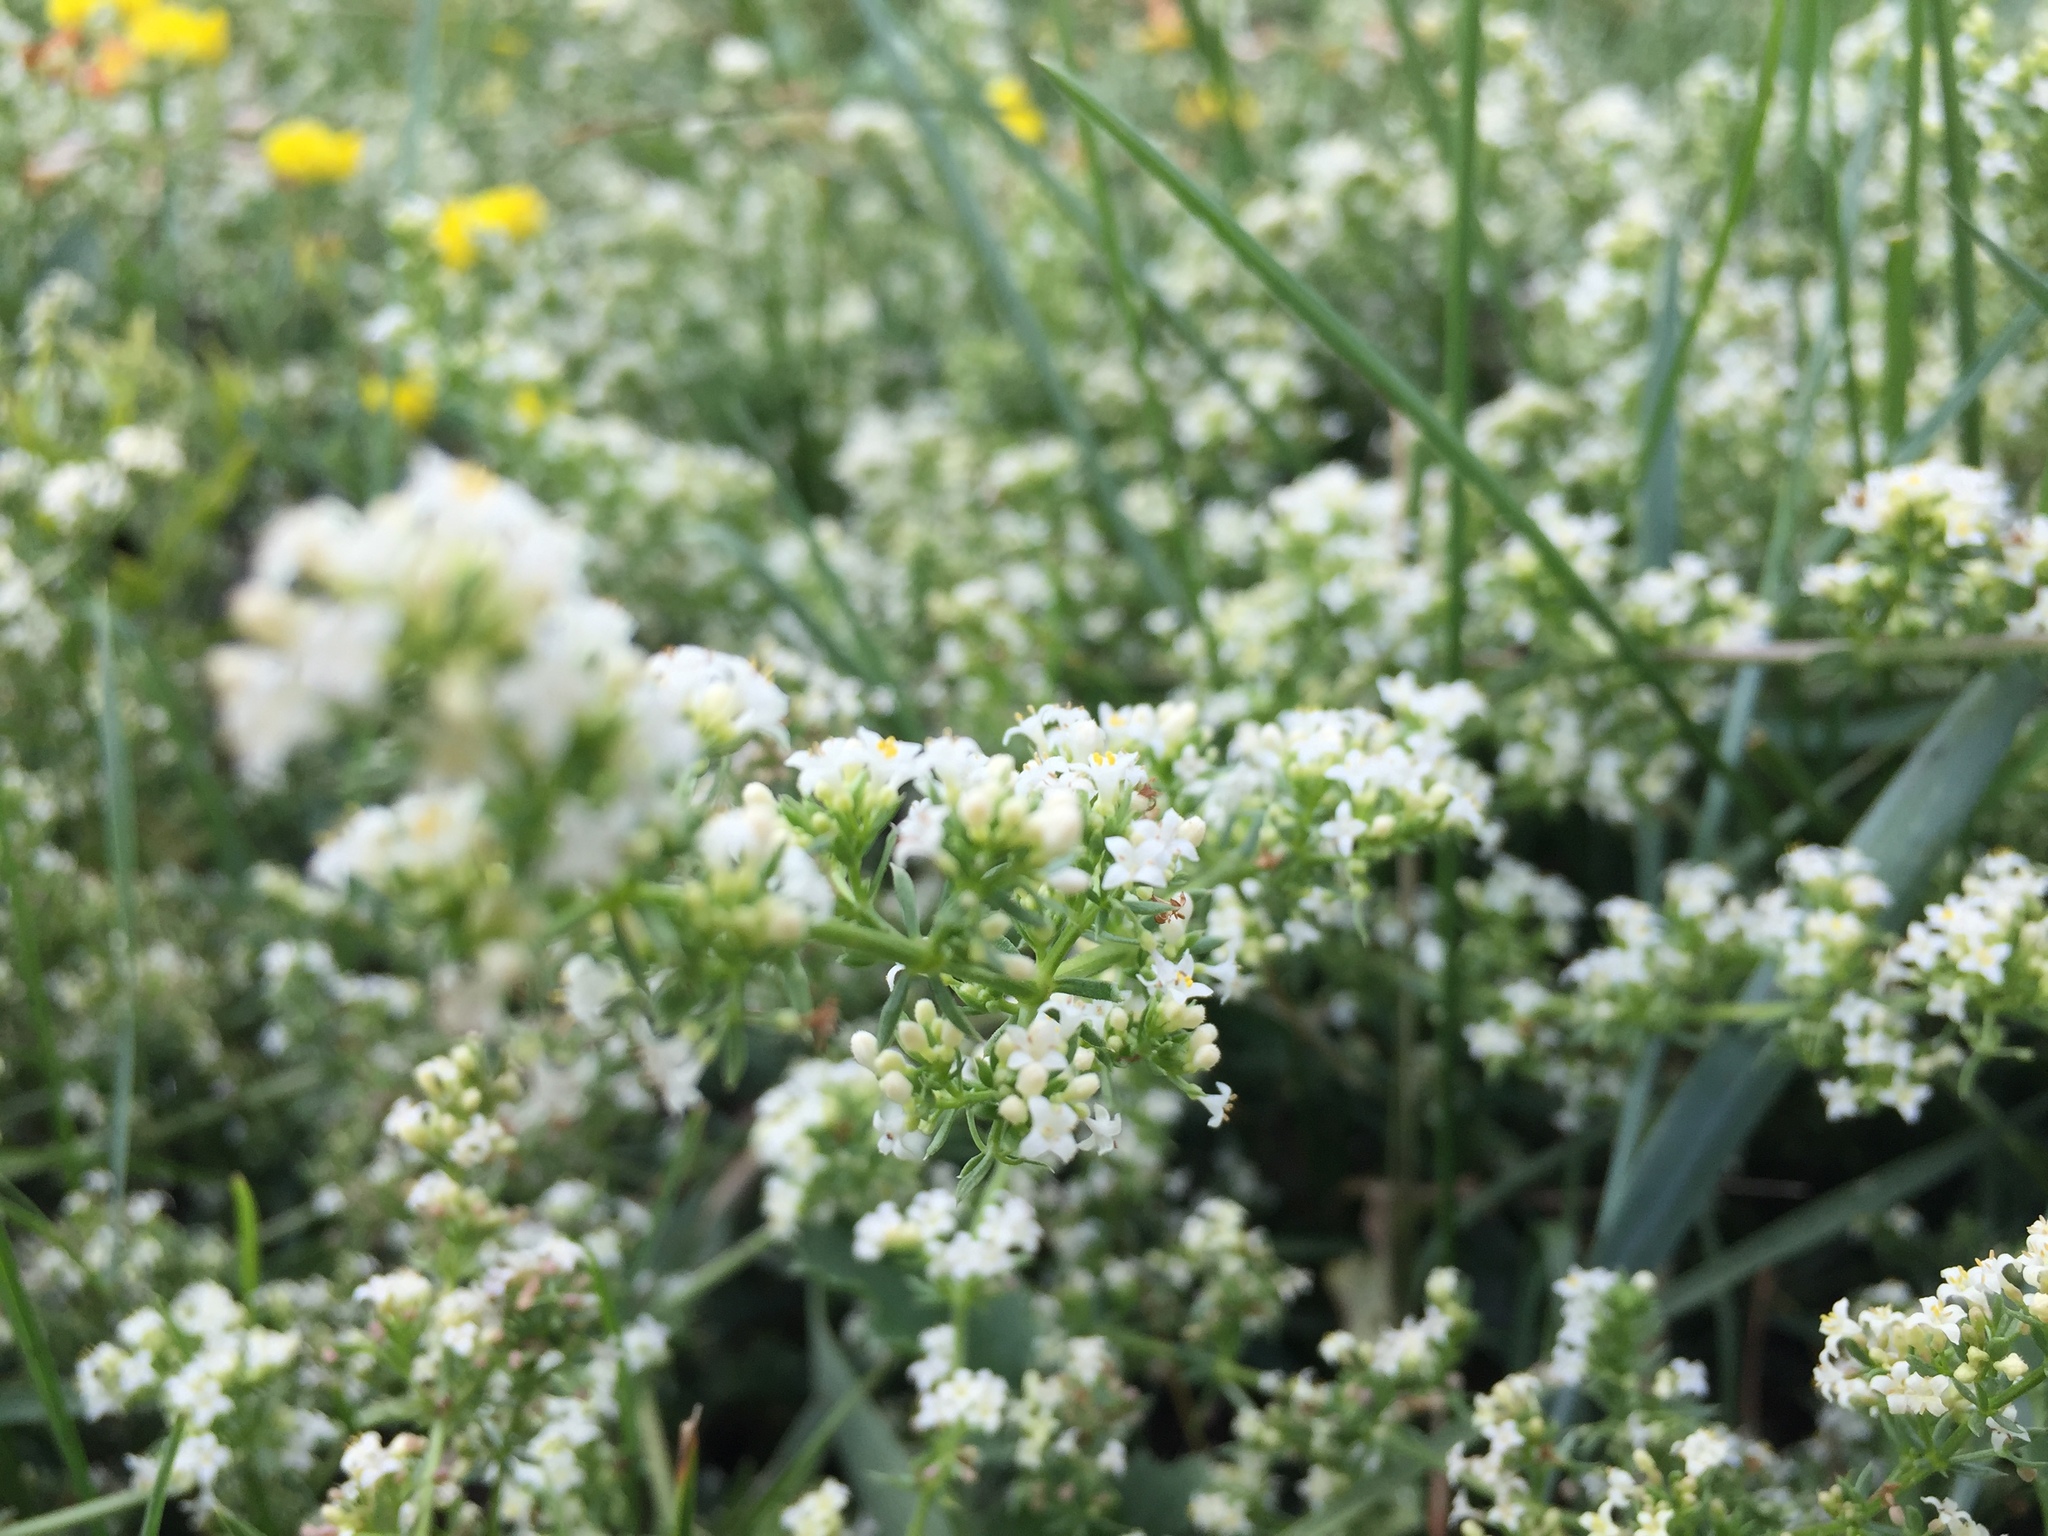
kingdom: Plantae
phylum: Tracheophyta
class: Magnoliopsida
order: Gentianales
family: Rubiaceae
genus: Galium
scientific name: Galium humifusum
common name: Spreading bedstraw
